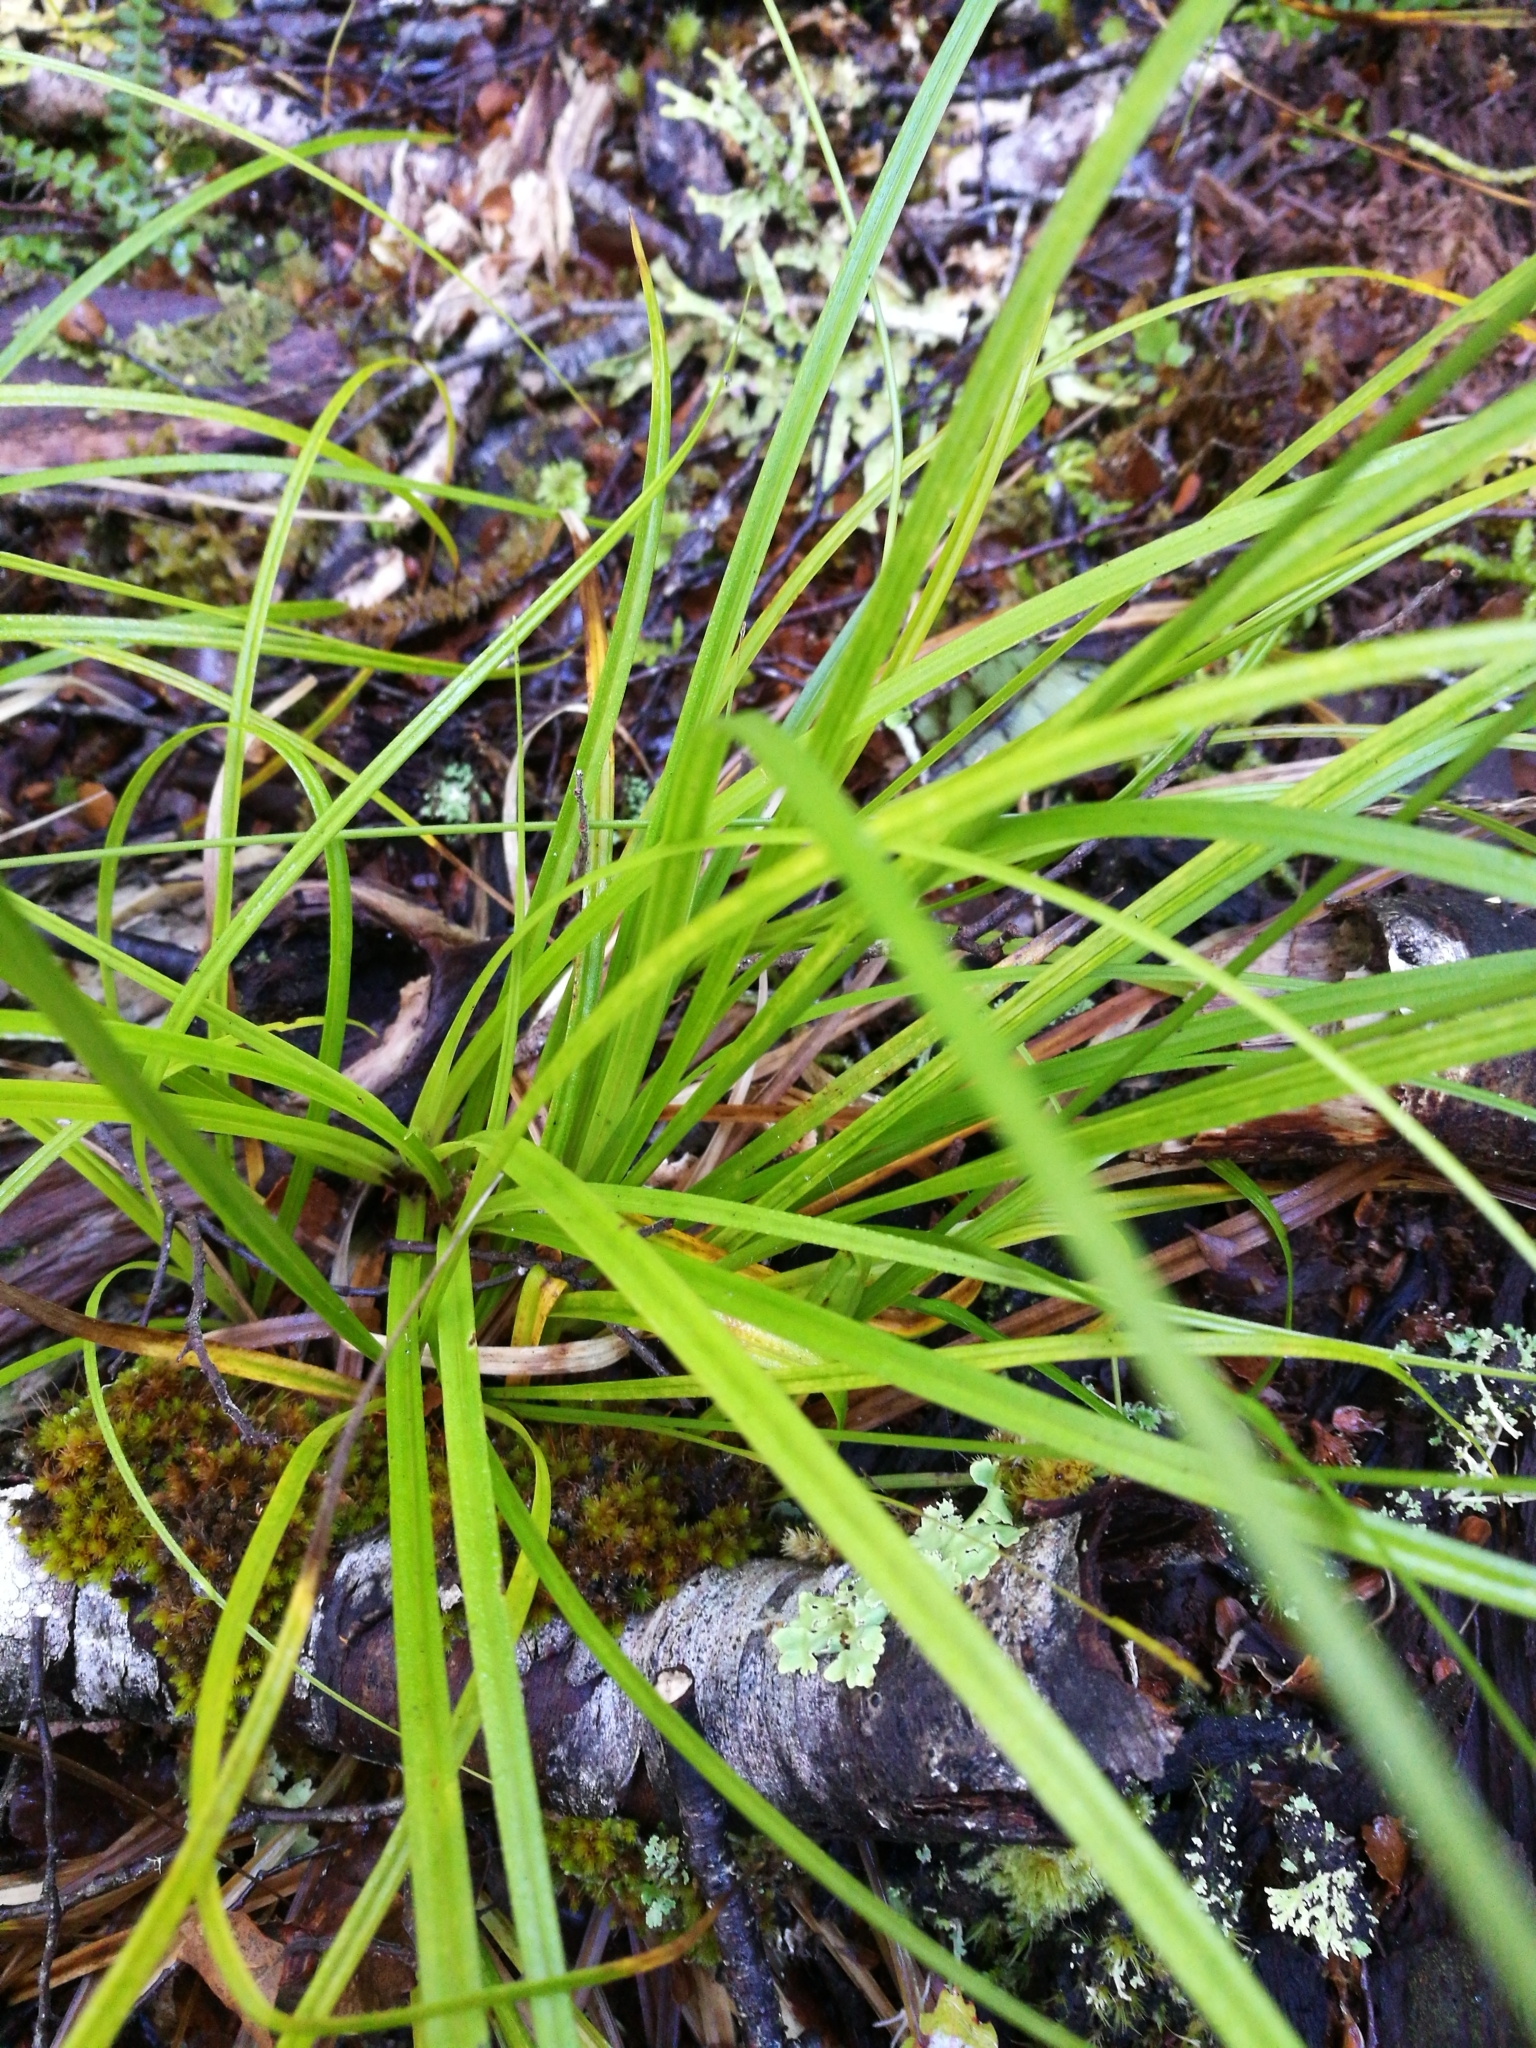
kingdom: Plantae
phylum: Tracheophyta
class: Liliopsida
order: Poales
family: Cyperaceae
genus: Carex
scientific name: Carex
